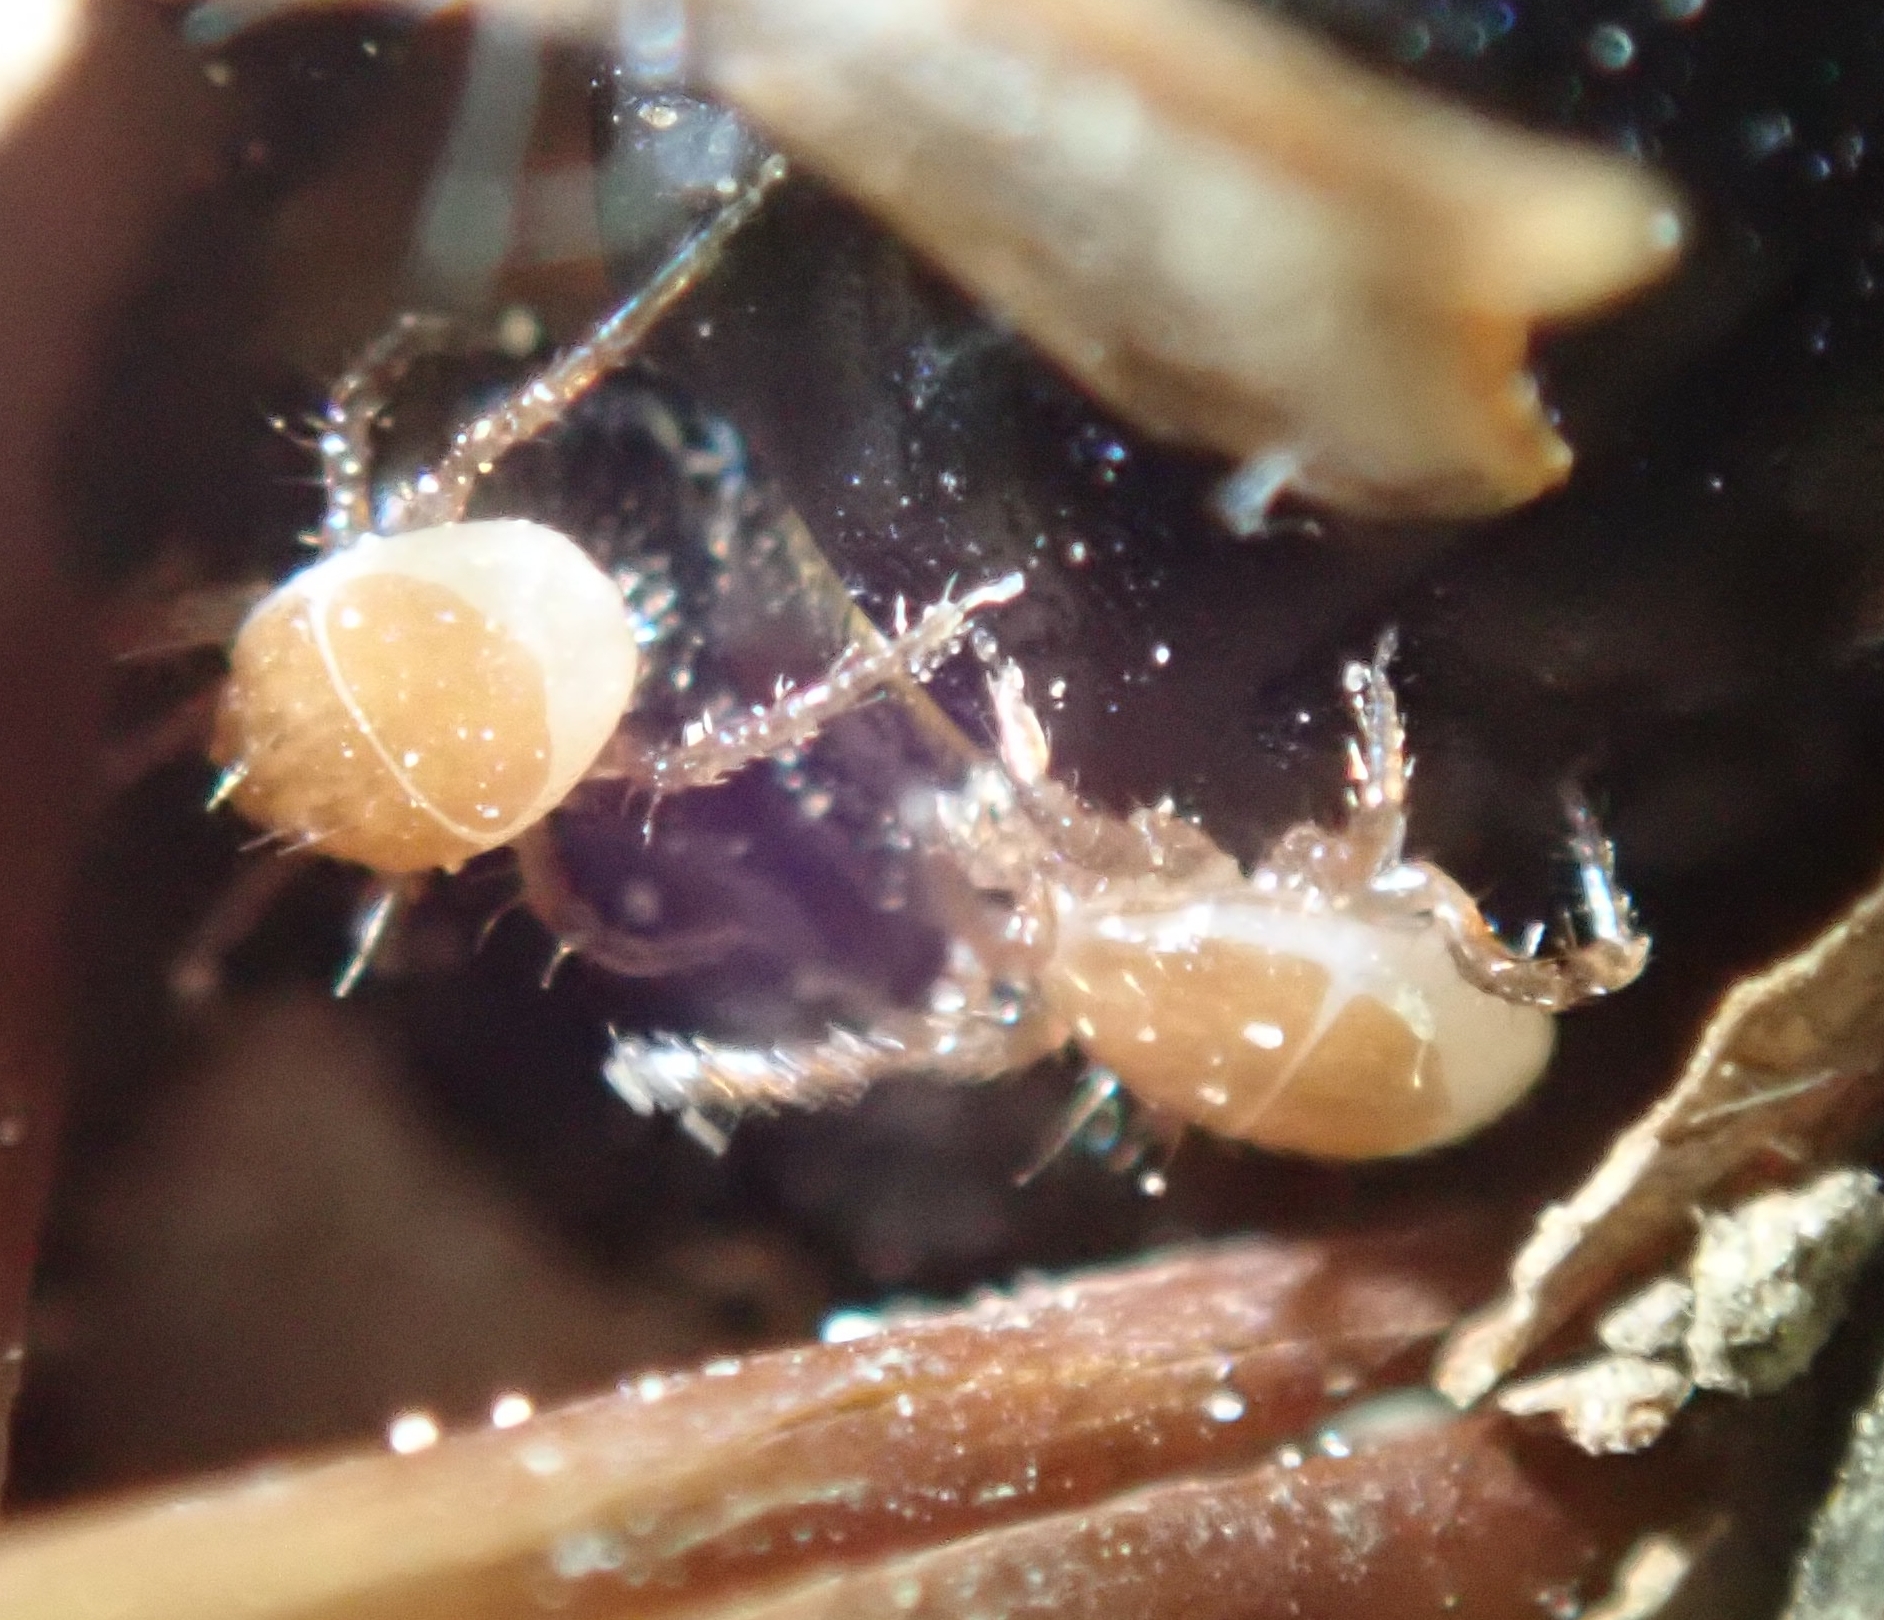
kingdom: Animalia
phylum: Arthropoda
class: Arachnida
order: Mesostigmata
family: Parasitidae
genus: Poecilochirus
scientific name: Poecilochirus
